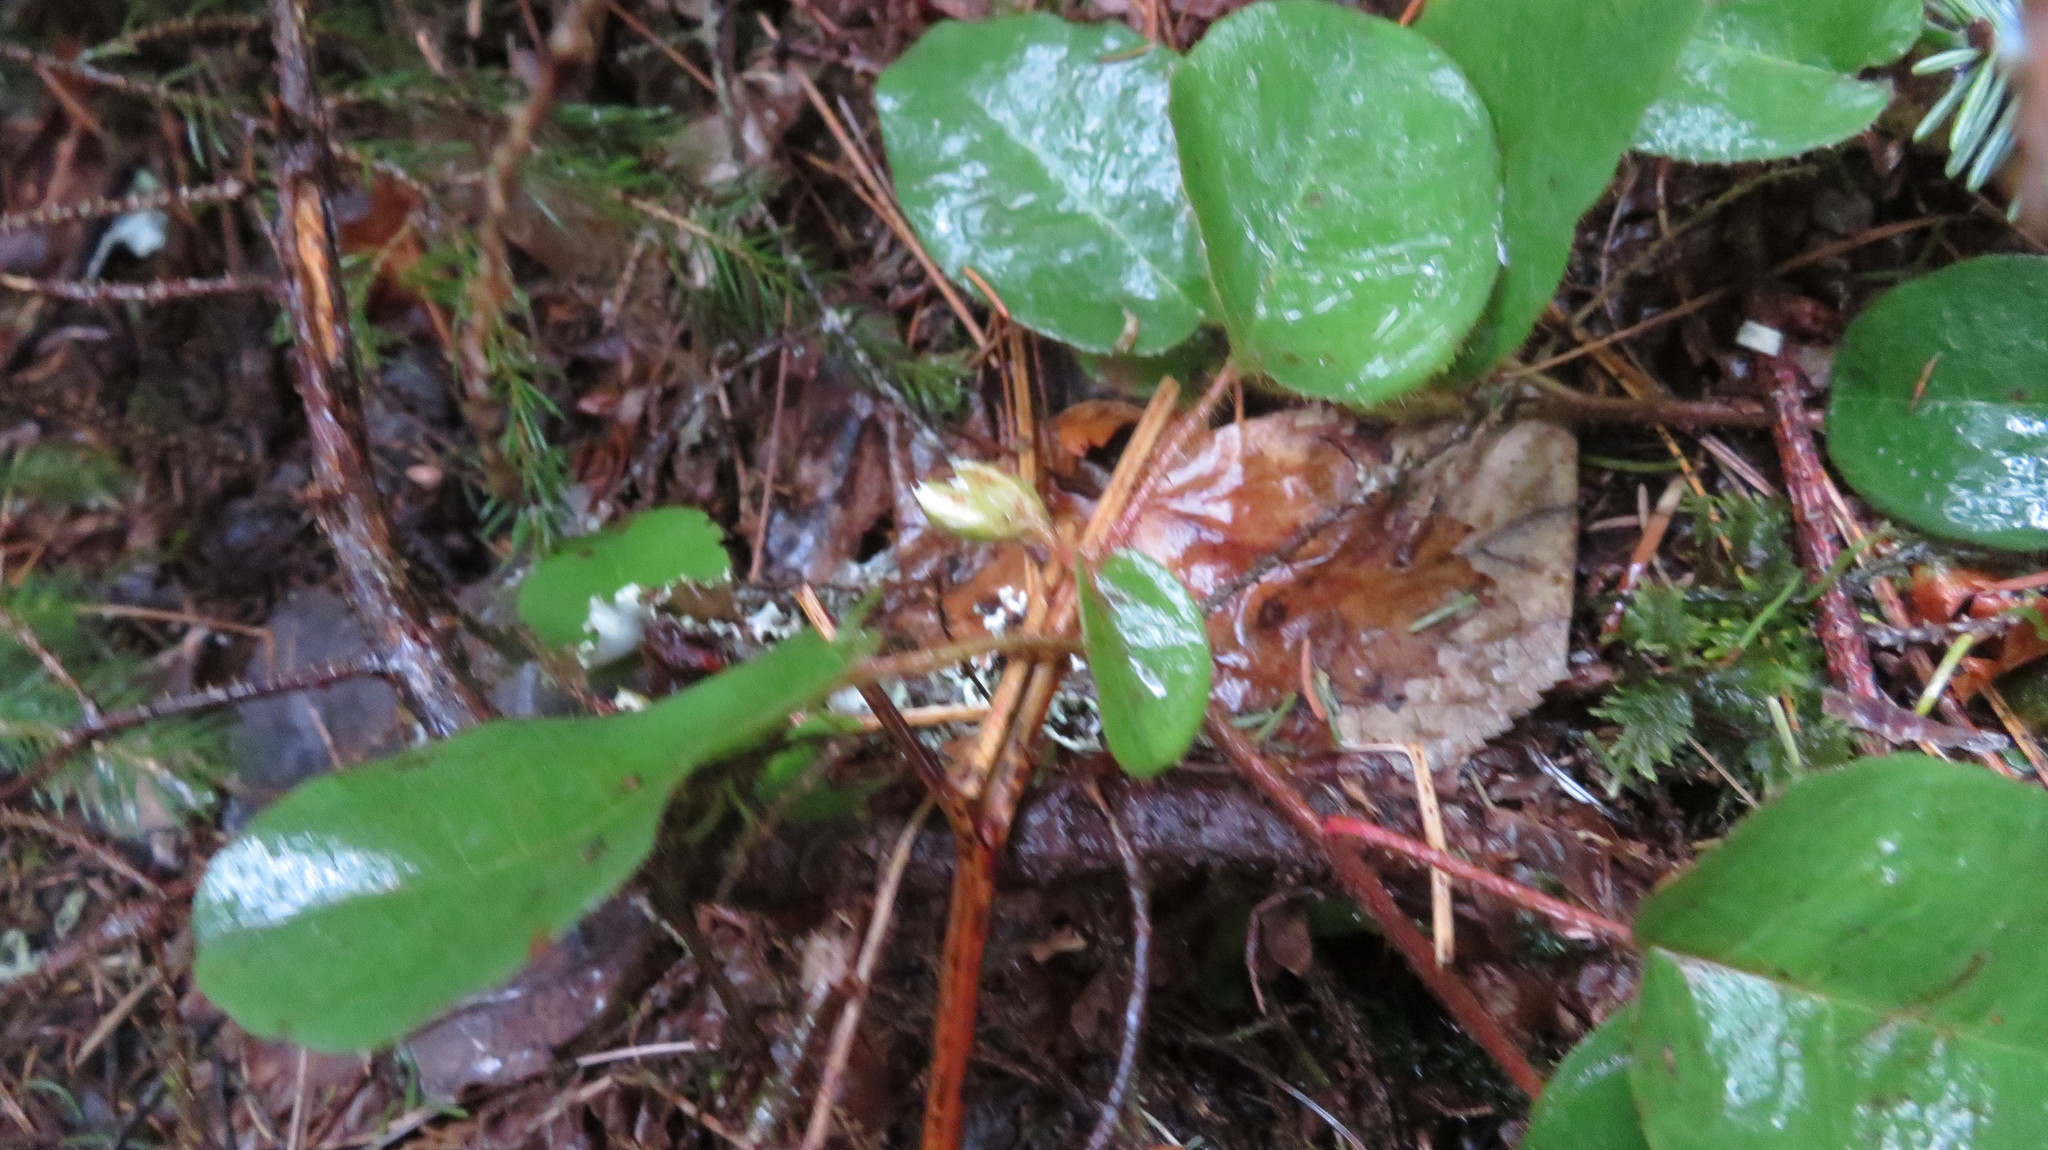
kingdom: Plantae
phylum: Tracheophyta
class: Magnoliopsida
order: Ericales
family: Ericaceae
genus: Epigaea
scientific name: Epigaea repens
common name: Gravelroot
